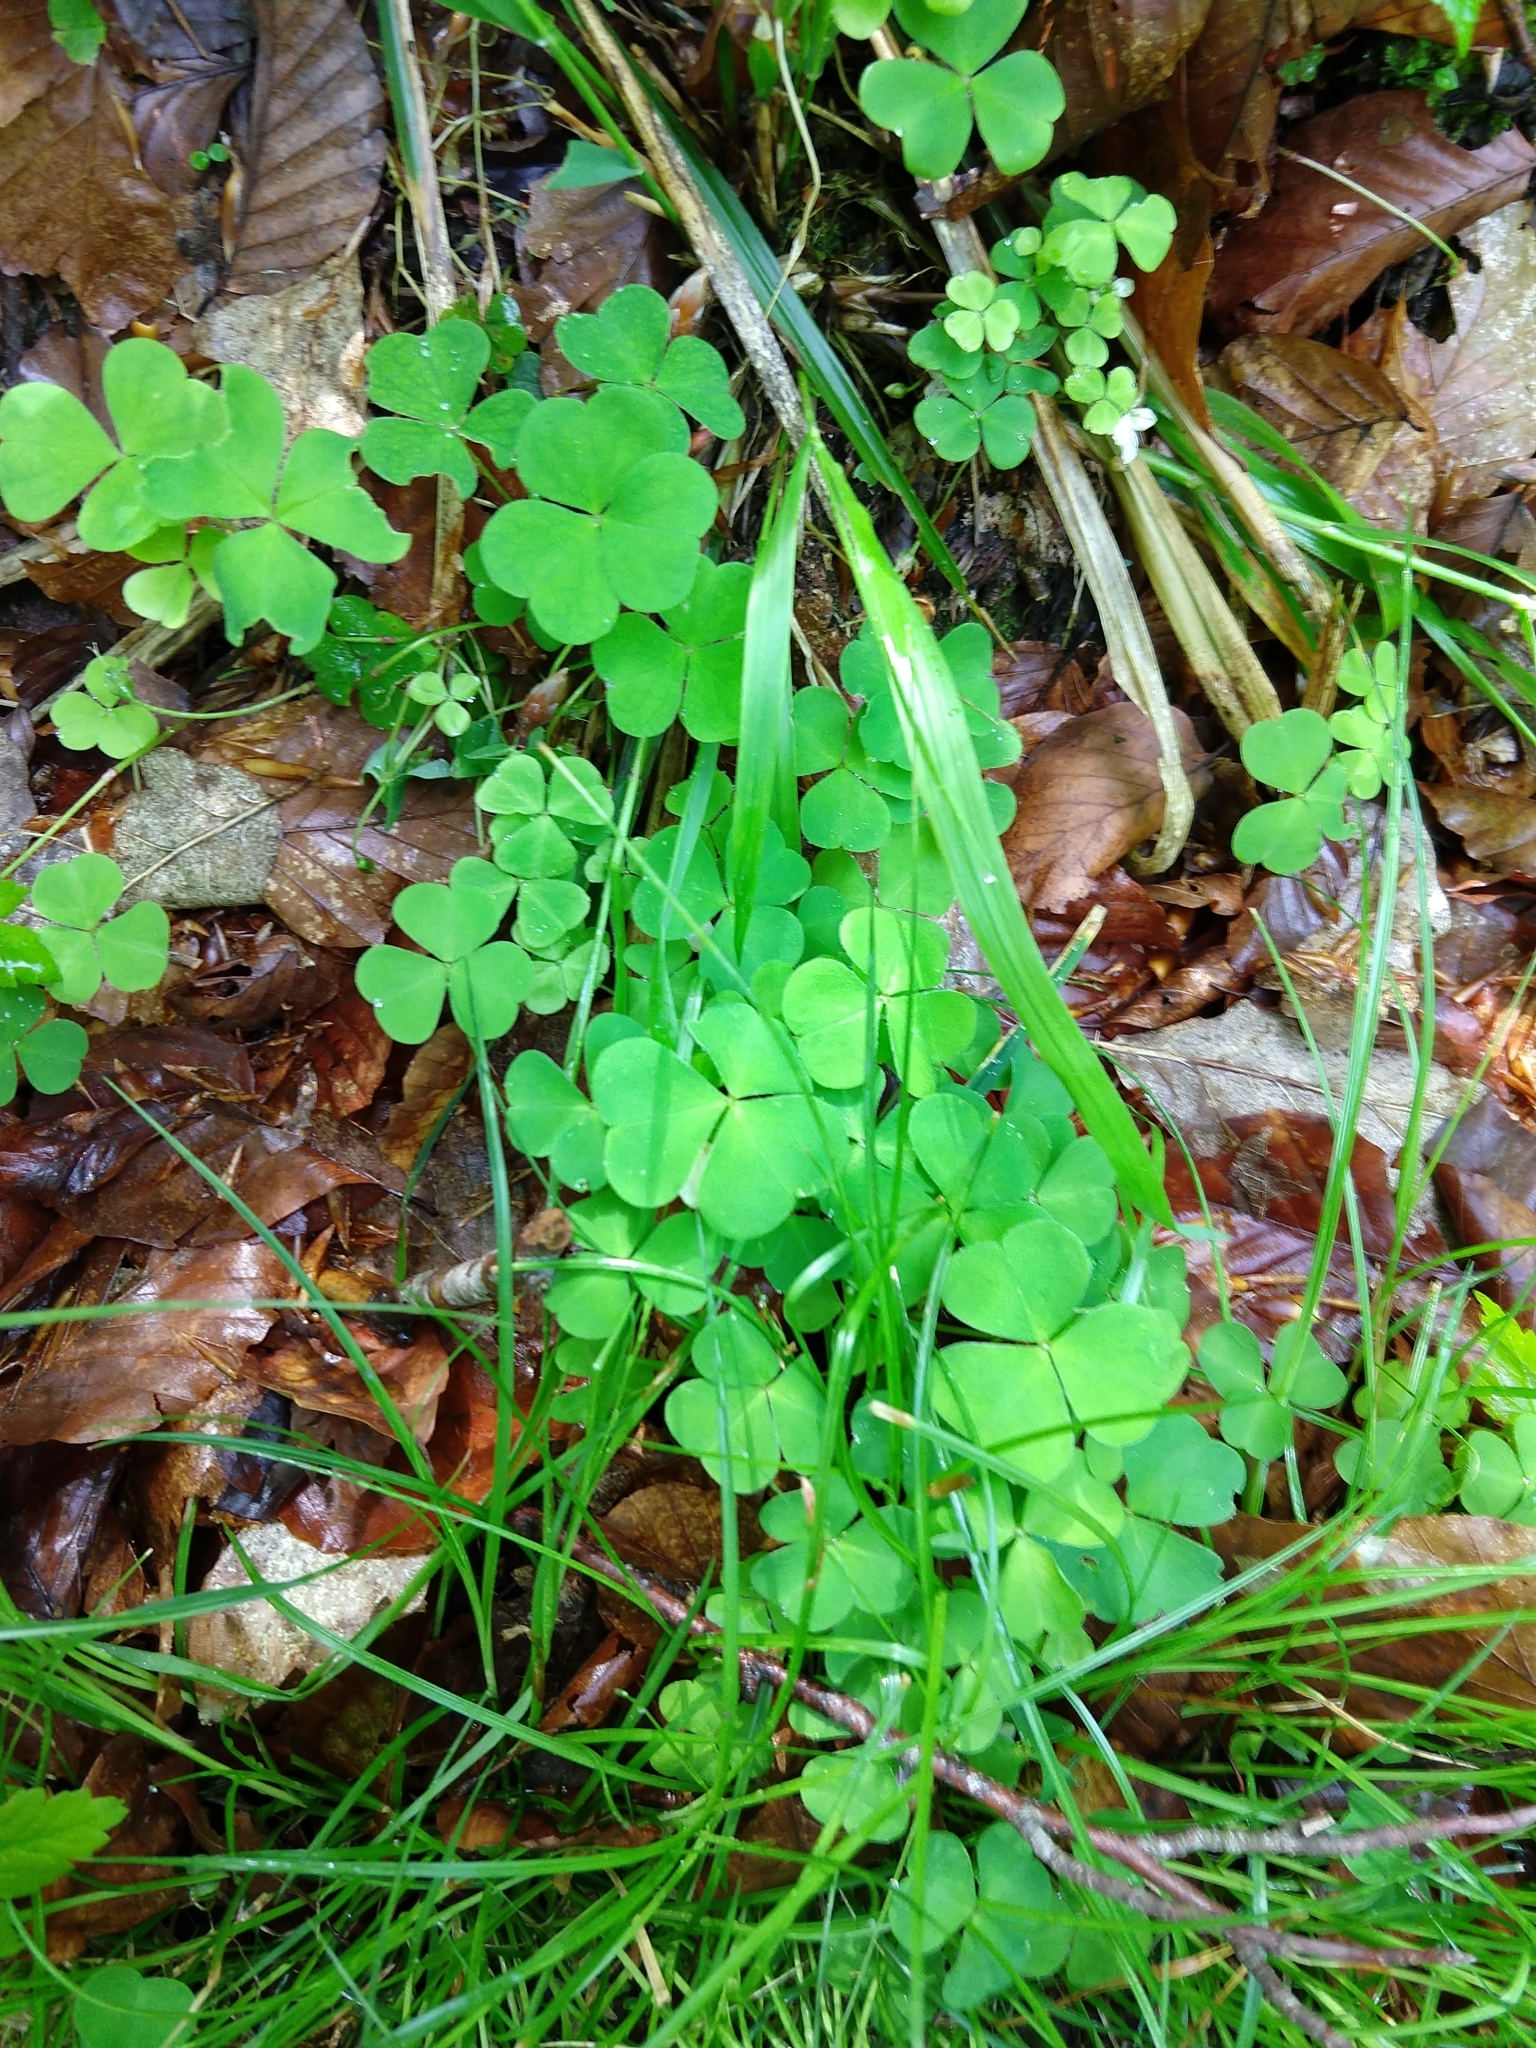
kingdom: Plantae
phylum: Tracheophyta
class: Magnoliopsida
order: Oxalidales
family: Oxalidaceae
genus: Oxalis
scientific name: Oxalis acetosella
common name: Wood-sorrel
